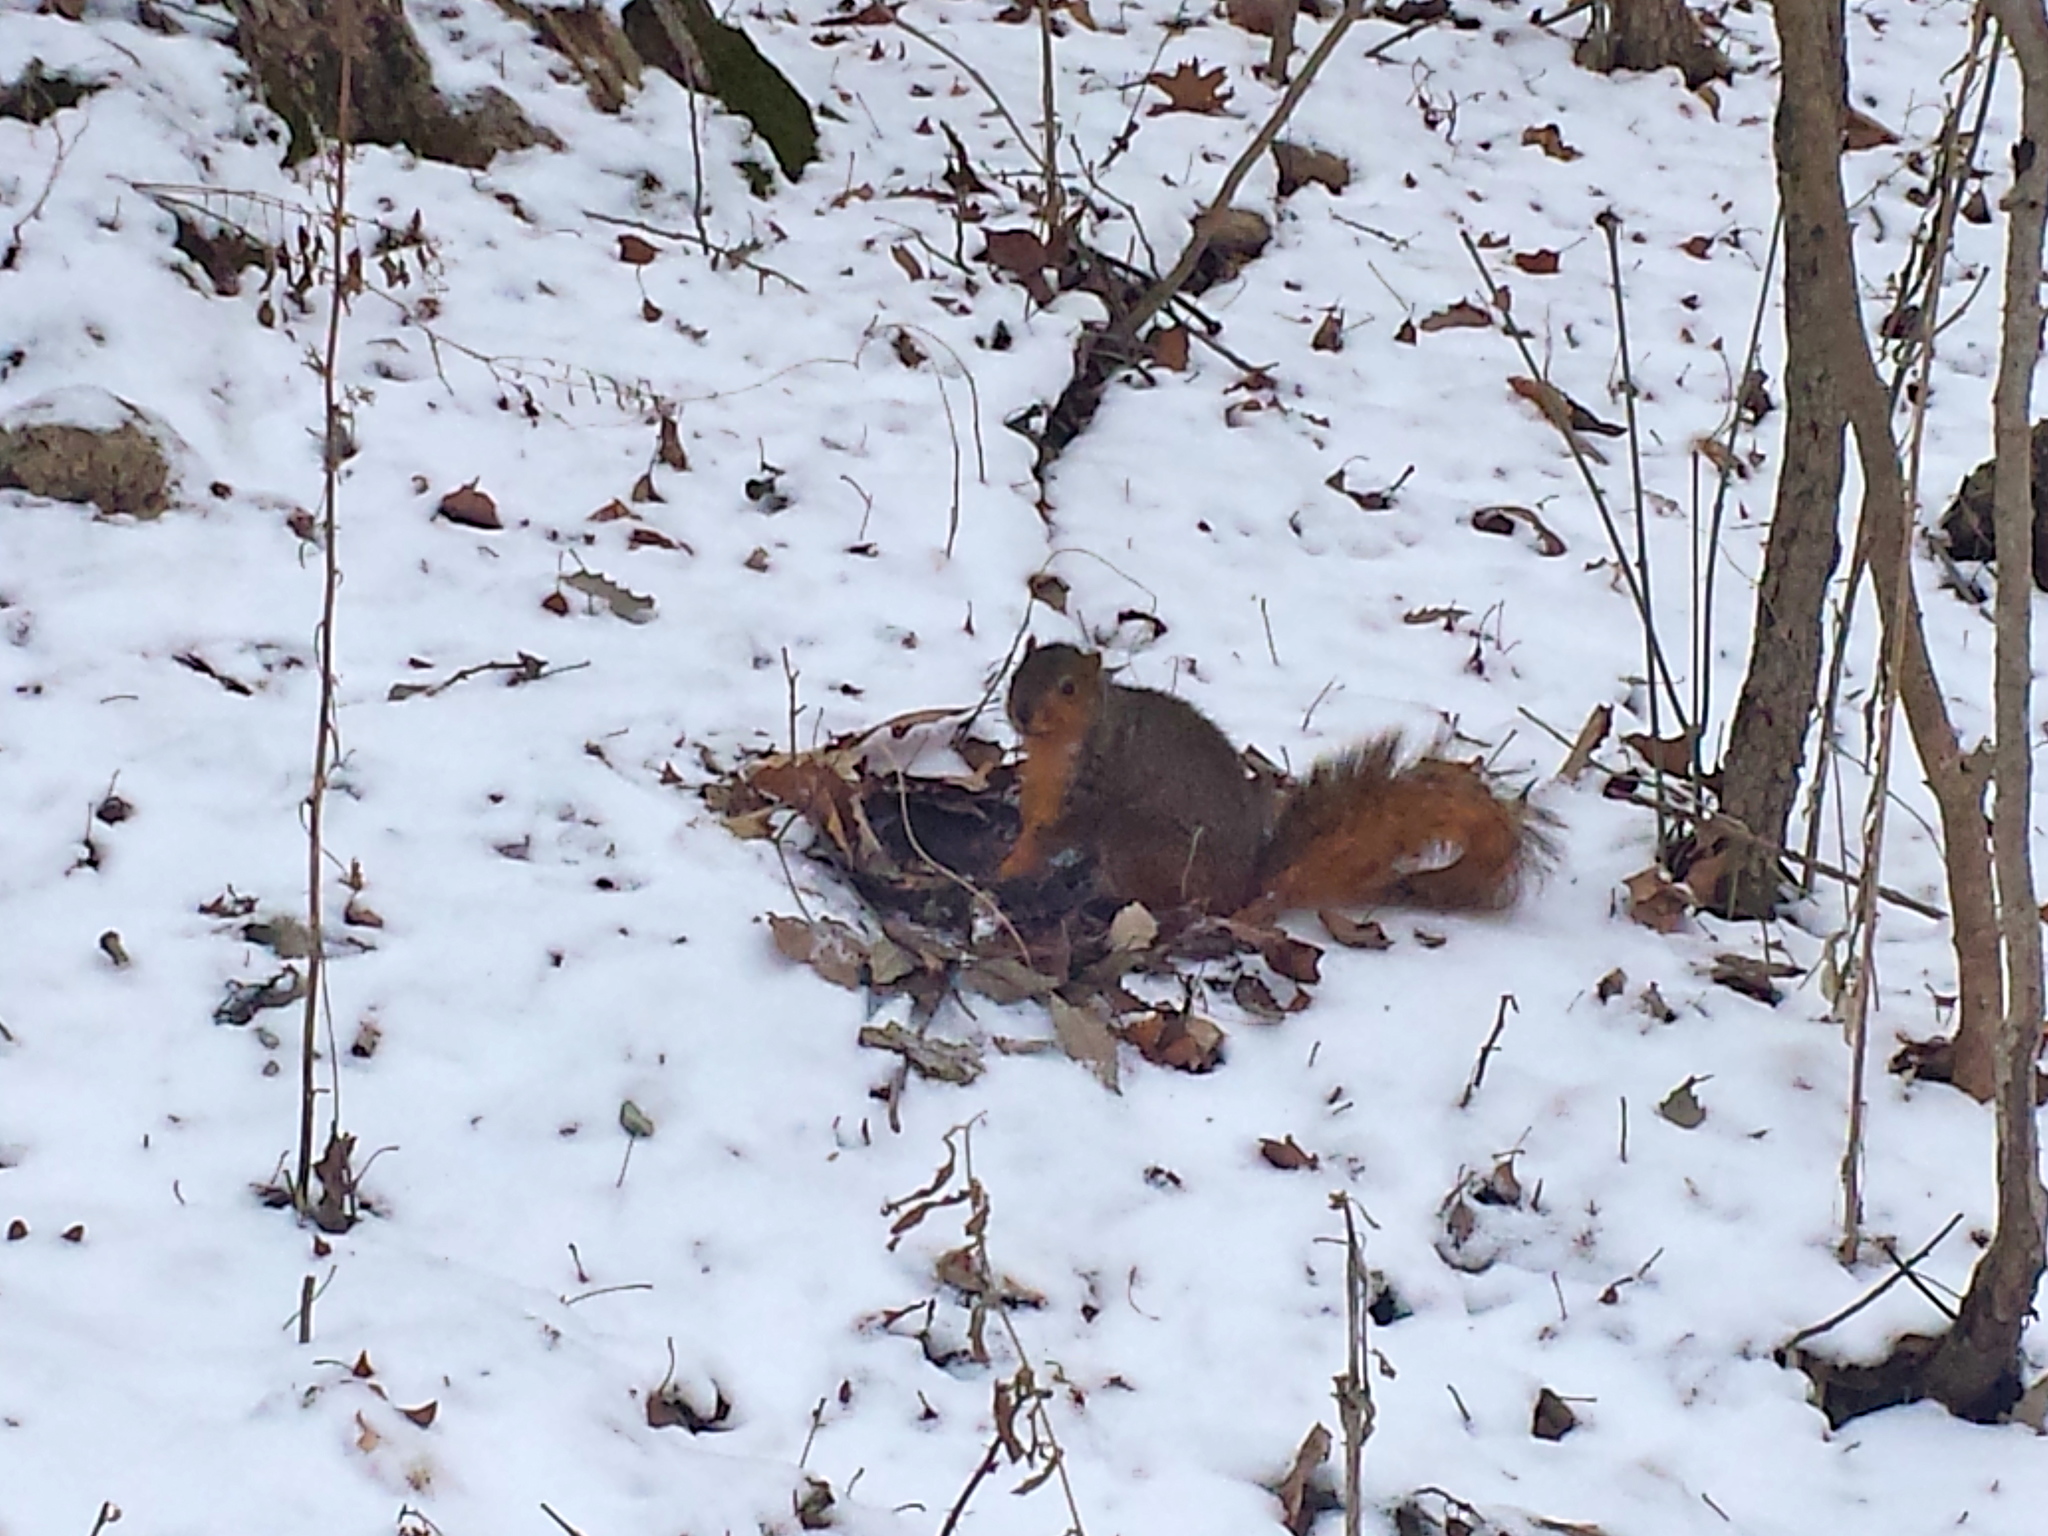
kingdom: Animalia
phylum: Chordata
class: Mammalia
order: Rodentia
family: Sciuridae
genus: Sciurus
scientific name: Sciurus niger
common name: Fox squirrel
